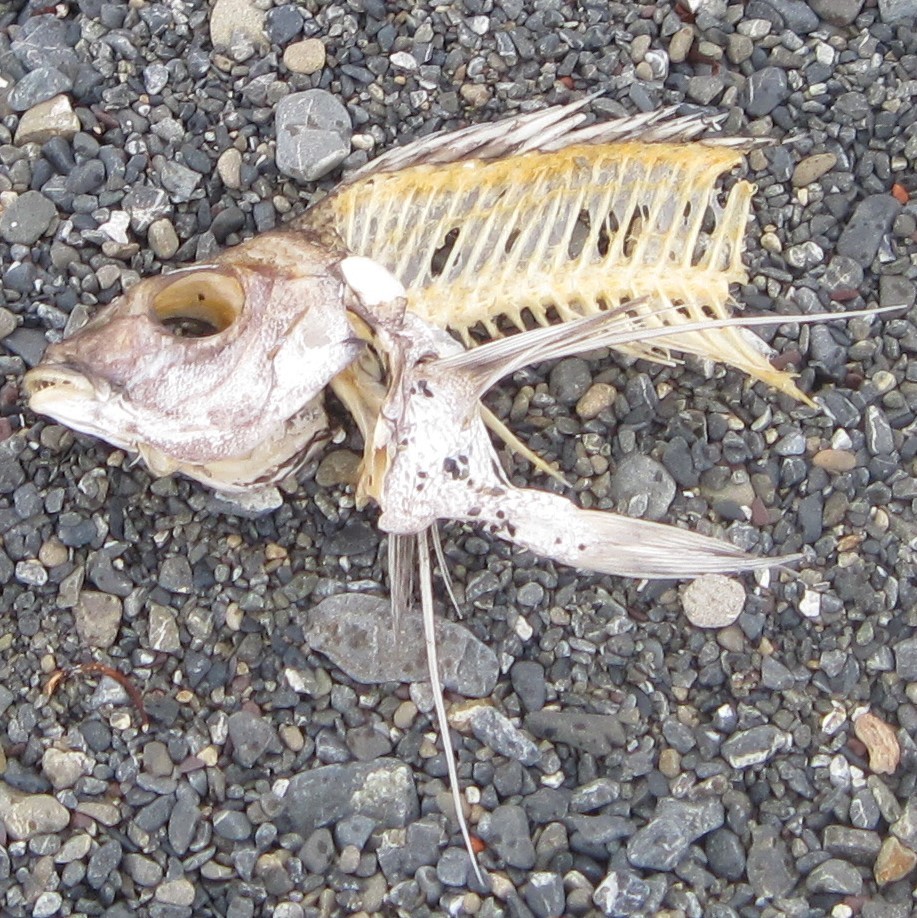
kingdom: Animalia
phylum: Chordata
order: Perciformes
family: Cheilodactylidae
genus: Nemadactylus
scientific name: Nemadactylus macropterus
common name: Tarakihi
